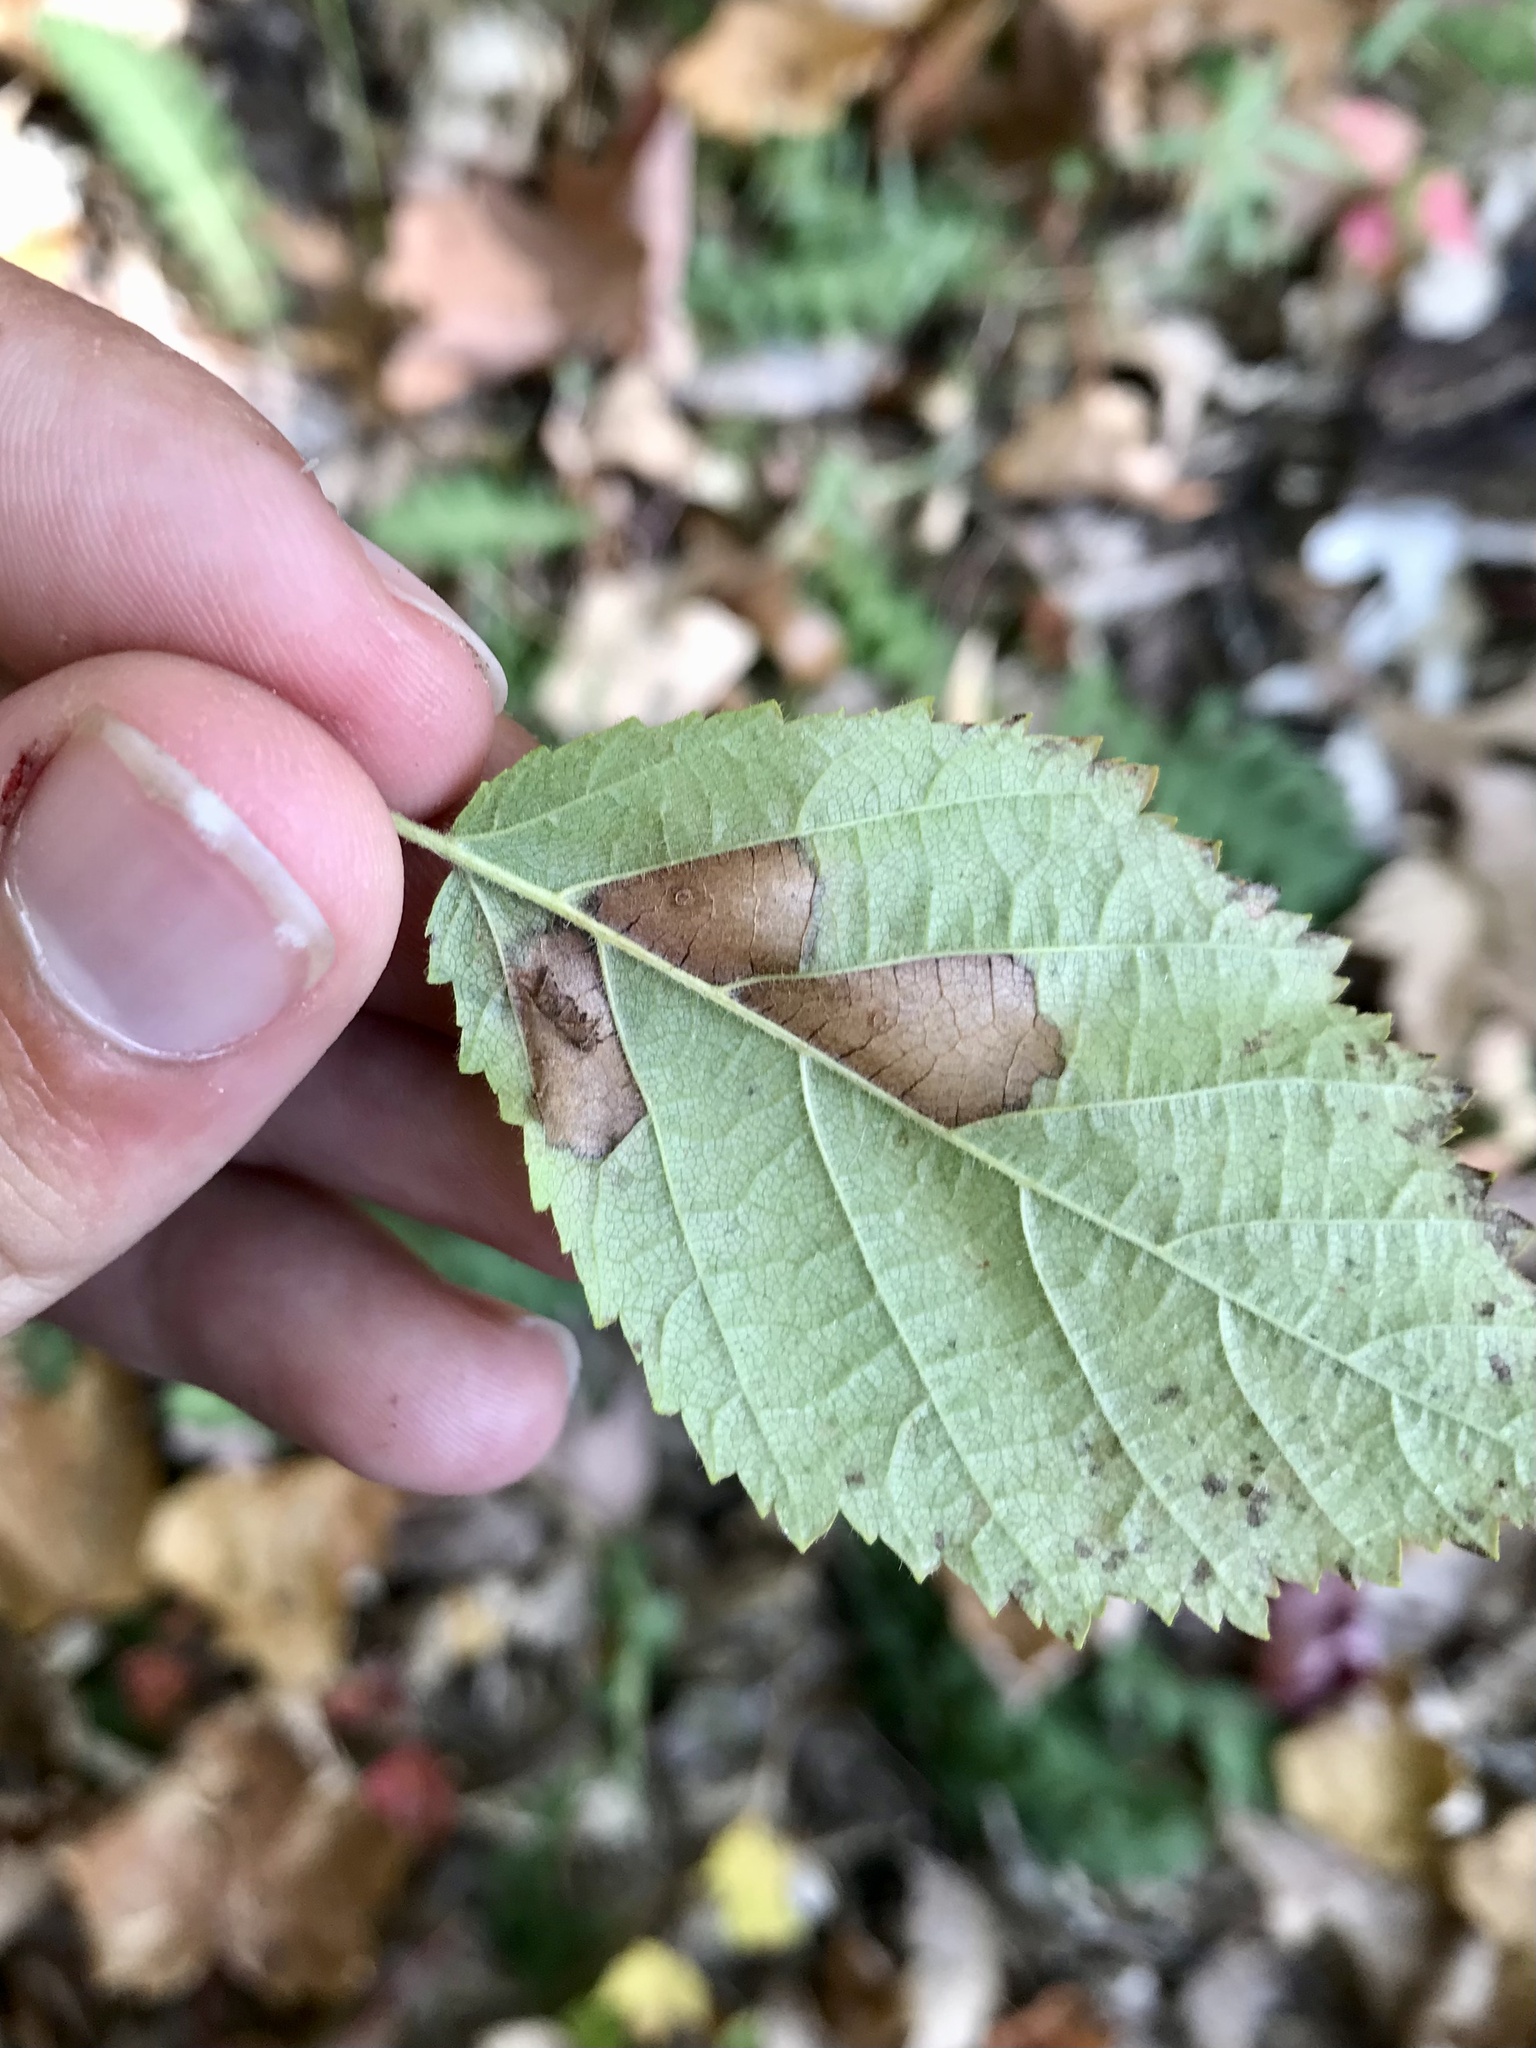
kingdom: Animalia
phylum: Arthropoda
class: Insecta
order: Lepidoptera
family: Coleophoridae
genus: Coleophora
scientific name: Coleophora corylifoliella
